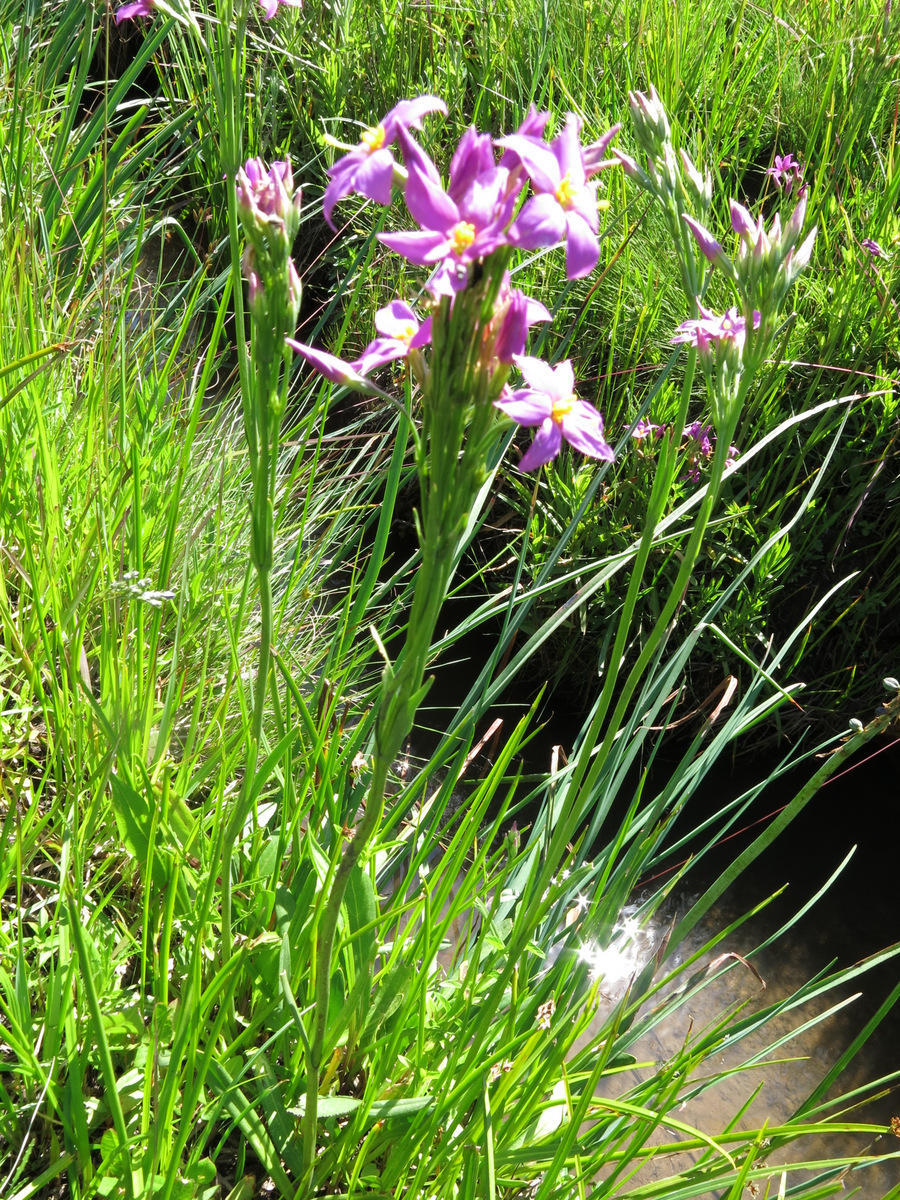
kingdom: Plantae
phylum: Tracheophyta
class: Magnoliopsida
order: Gentianales
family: Gentianaceae
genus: Chironia
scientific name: Chironia purpurascens
